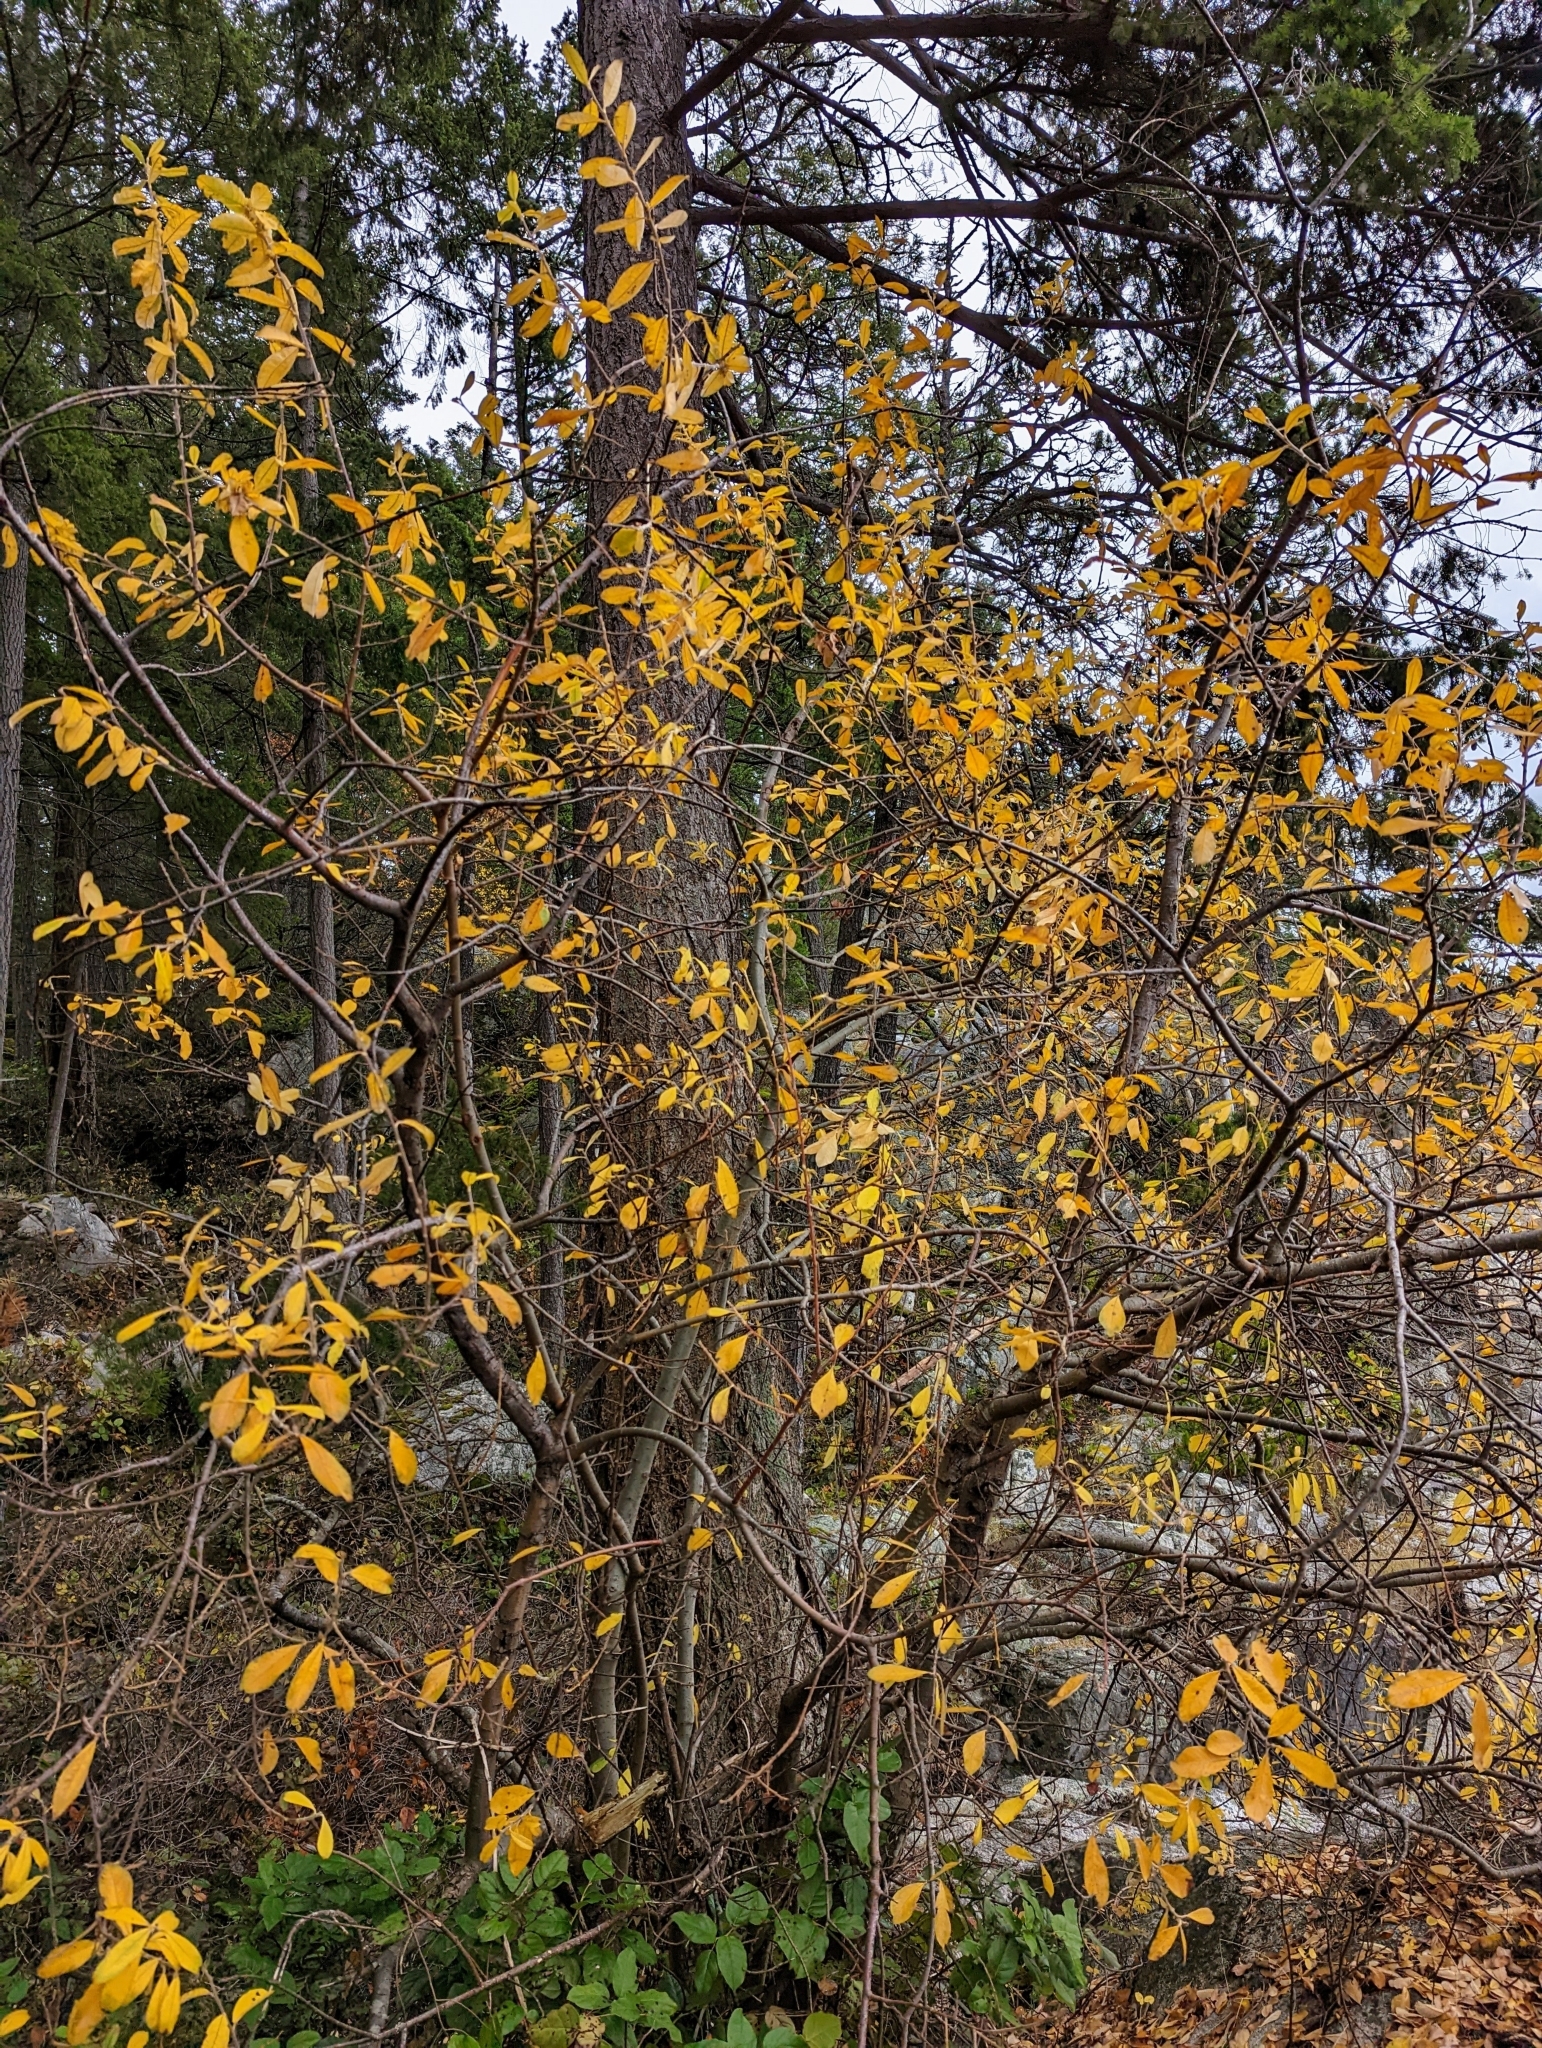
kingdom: Plantae
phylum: Tracheophyta
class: Magnoliopsida
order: Malpighiales
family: Salicaceae
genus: Salix
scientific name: Salix scouleriana
